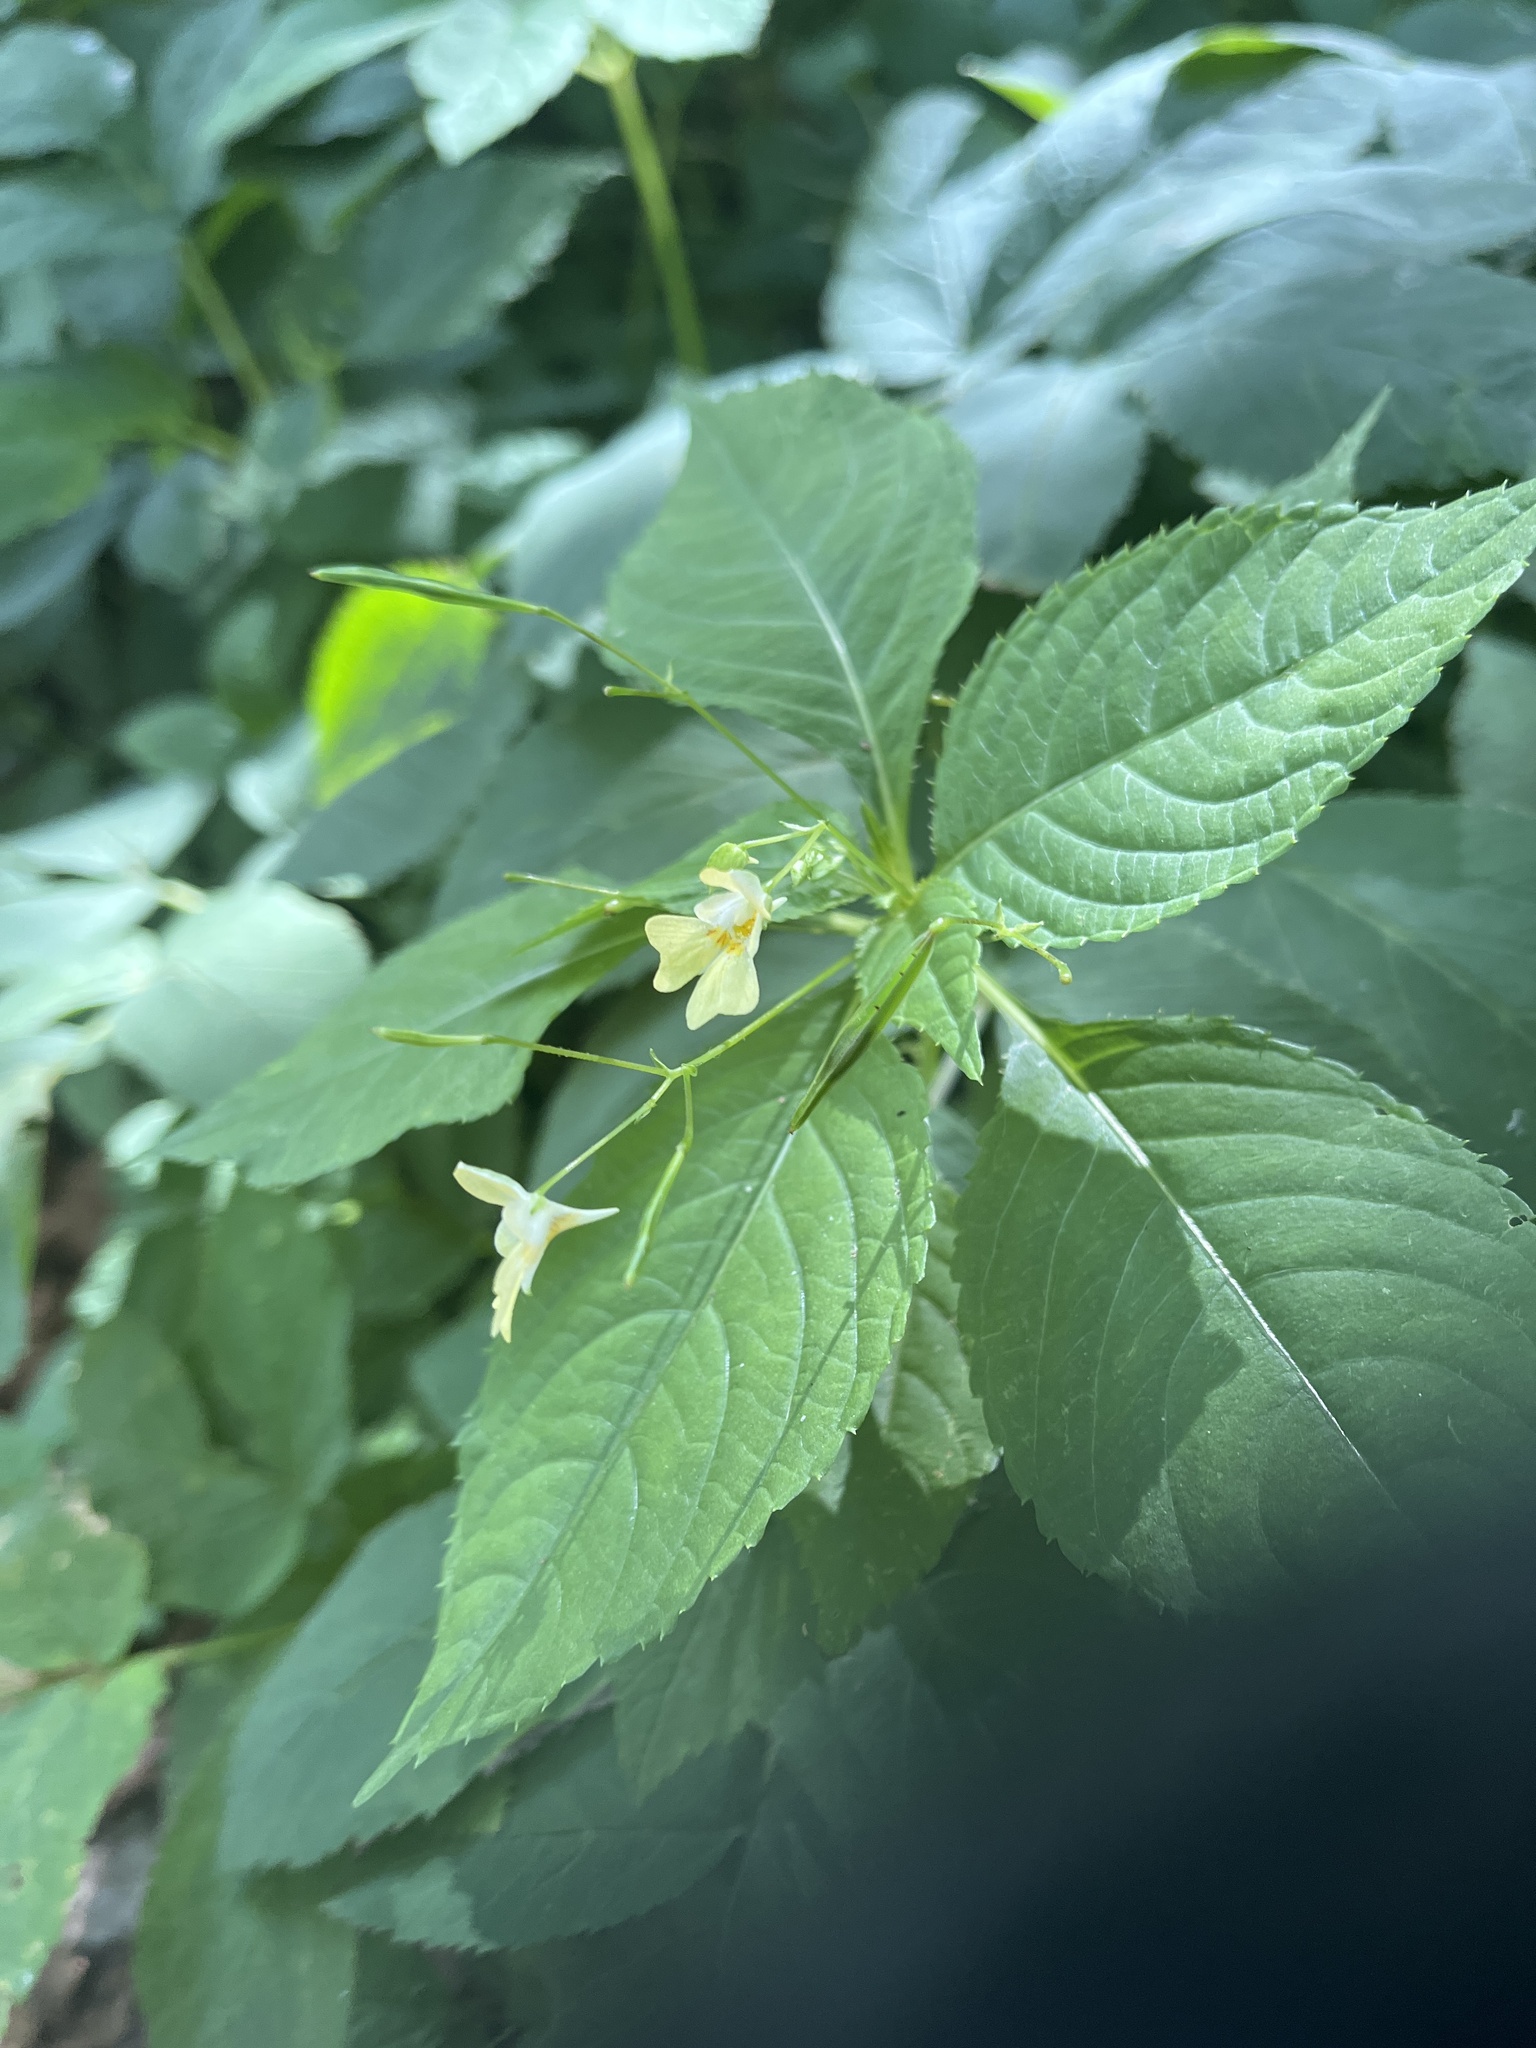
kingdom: Plantae
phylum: Tracheophyta
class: Magnoliopsida
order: Ericales
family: Balsaminaceae
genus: Impatiens
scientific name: Impatiens parviflora
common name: Small balsam
